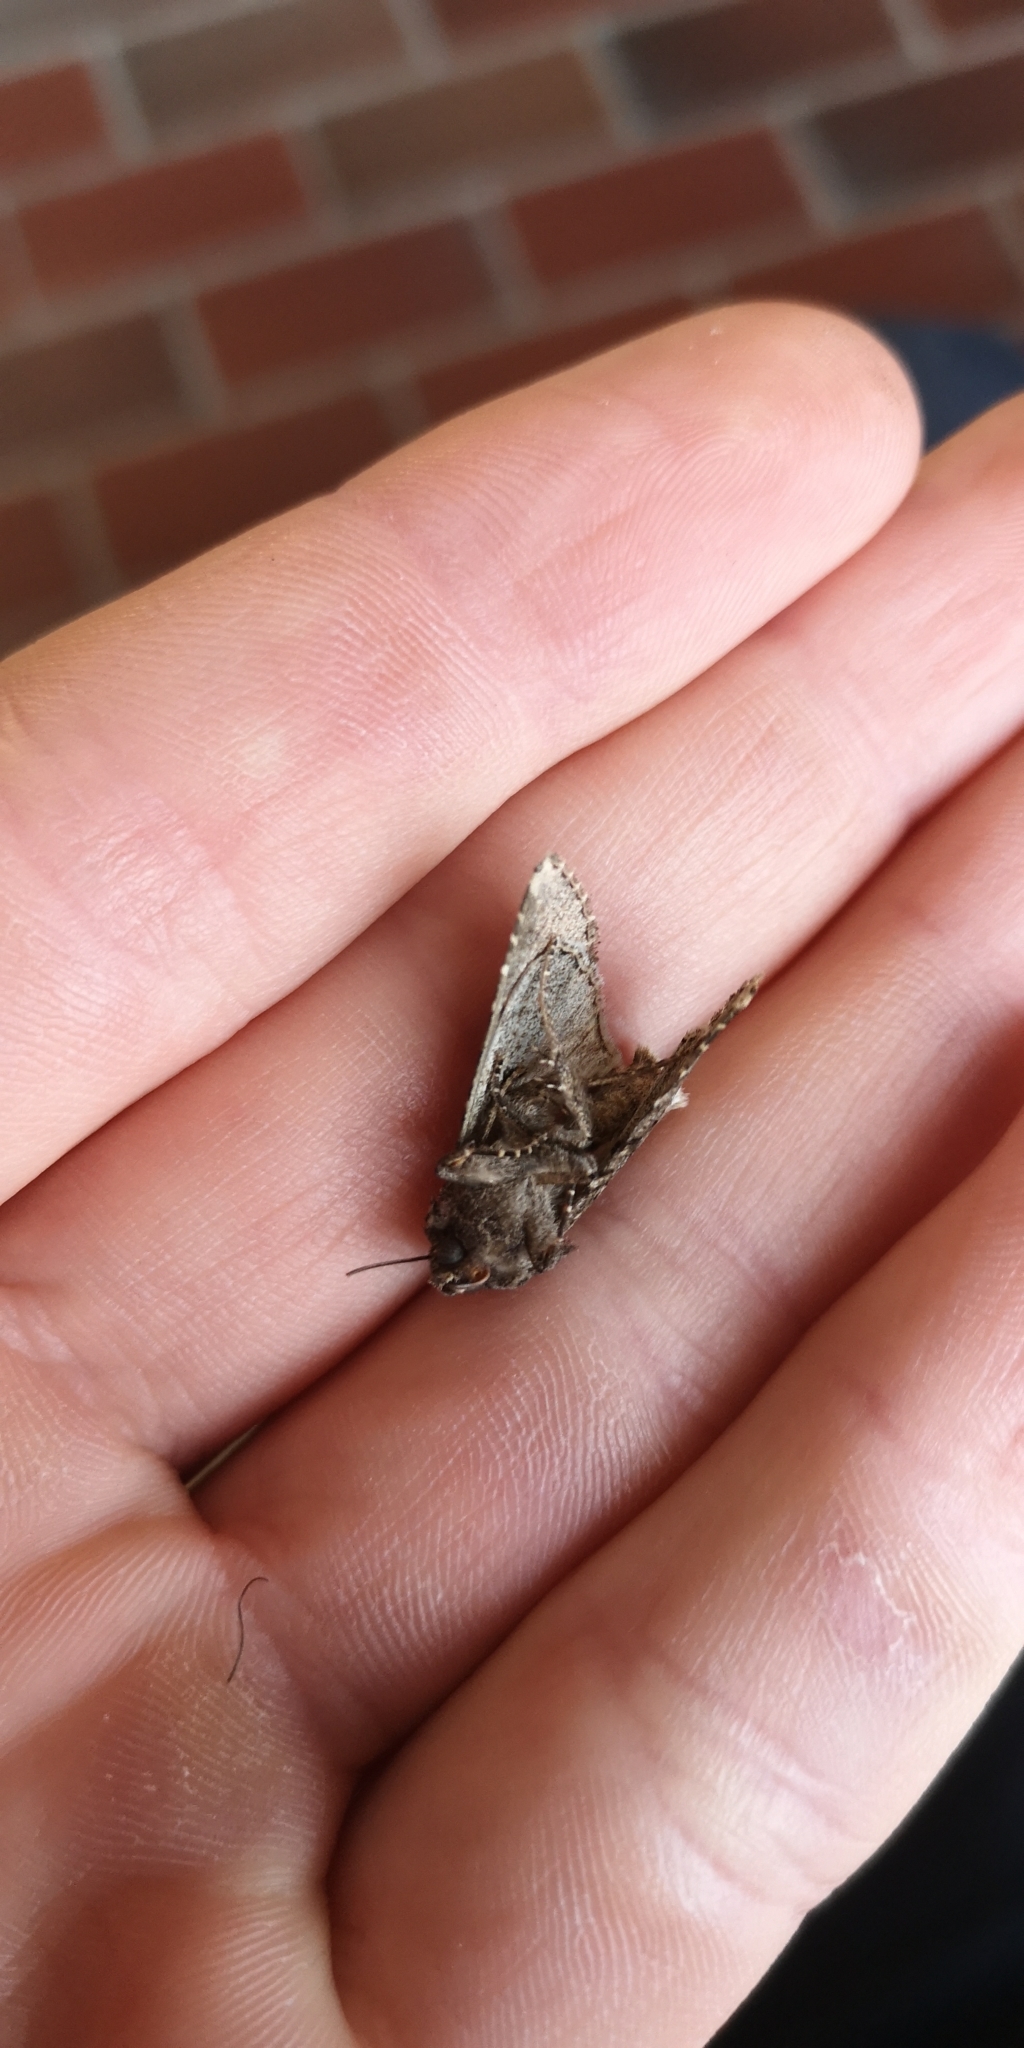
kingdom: Animalia
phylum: Arthropoda
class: Insecta
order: Lepidoptera
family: Noctuidae
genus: Mamestra
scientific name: Mamestra brassicae
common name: Cabbage moth
